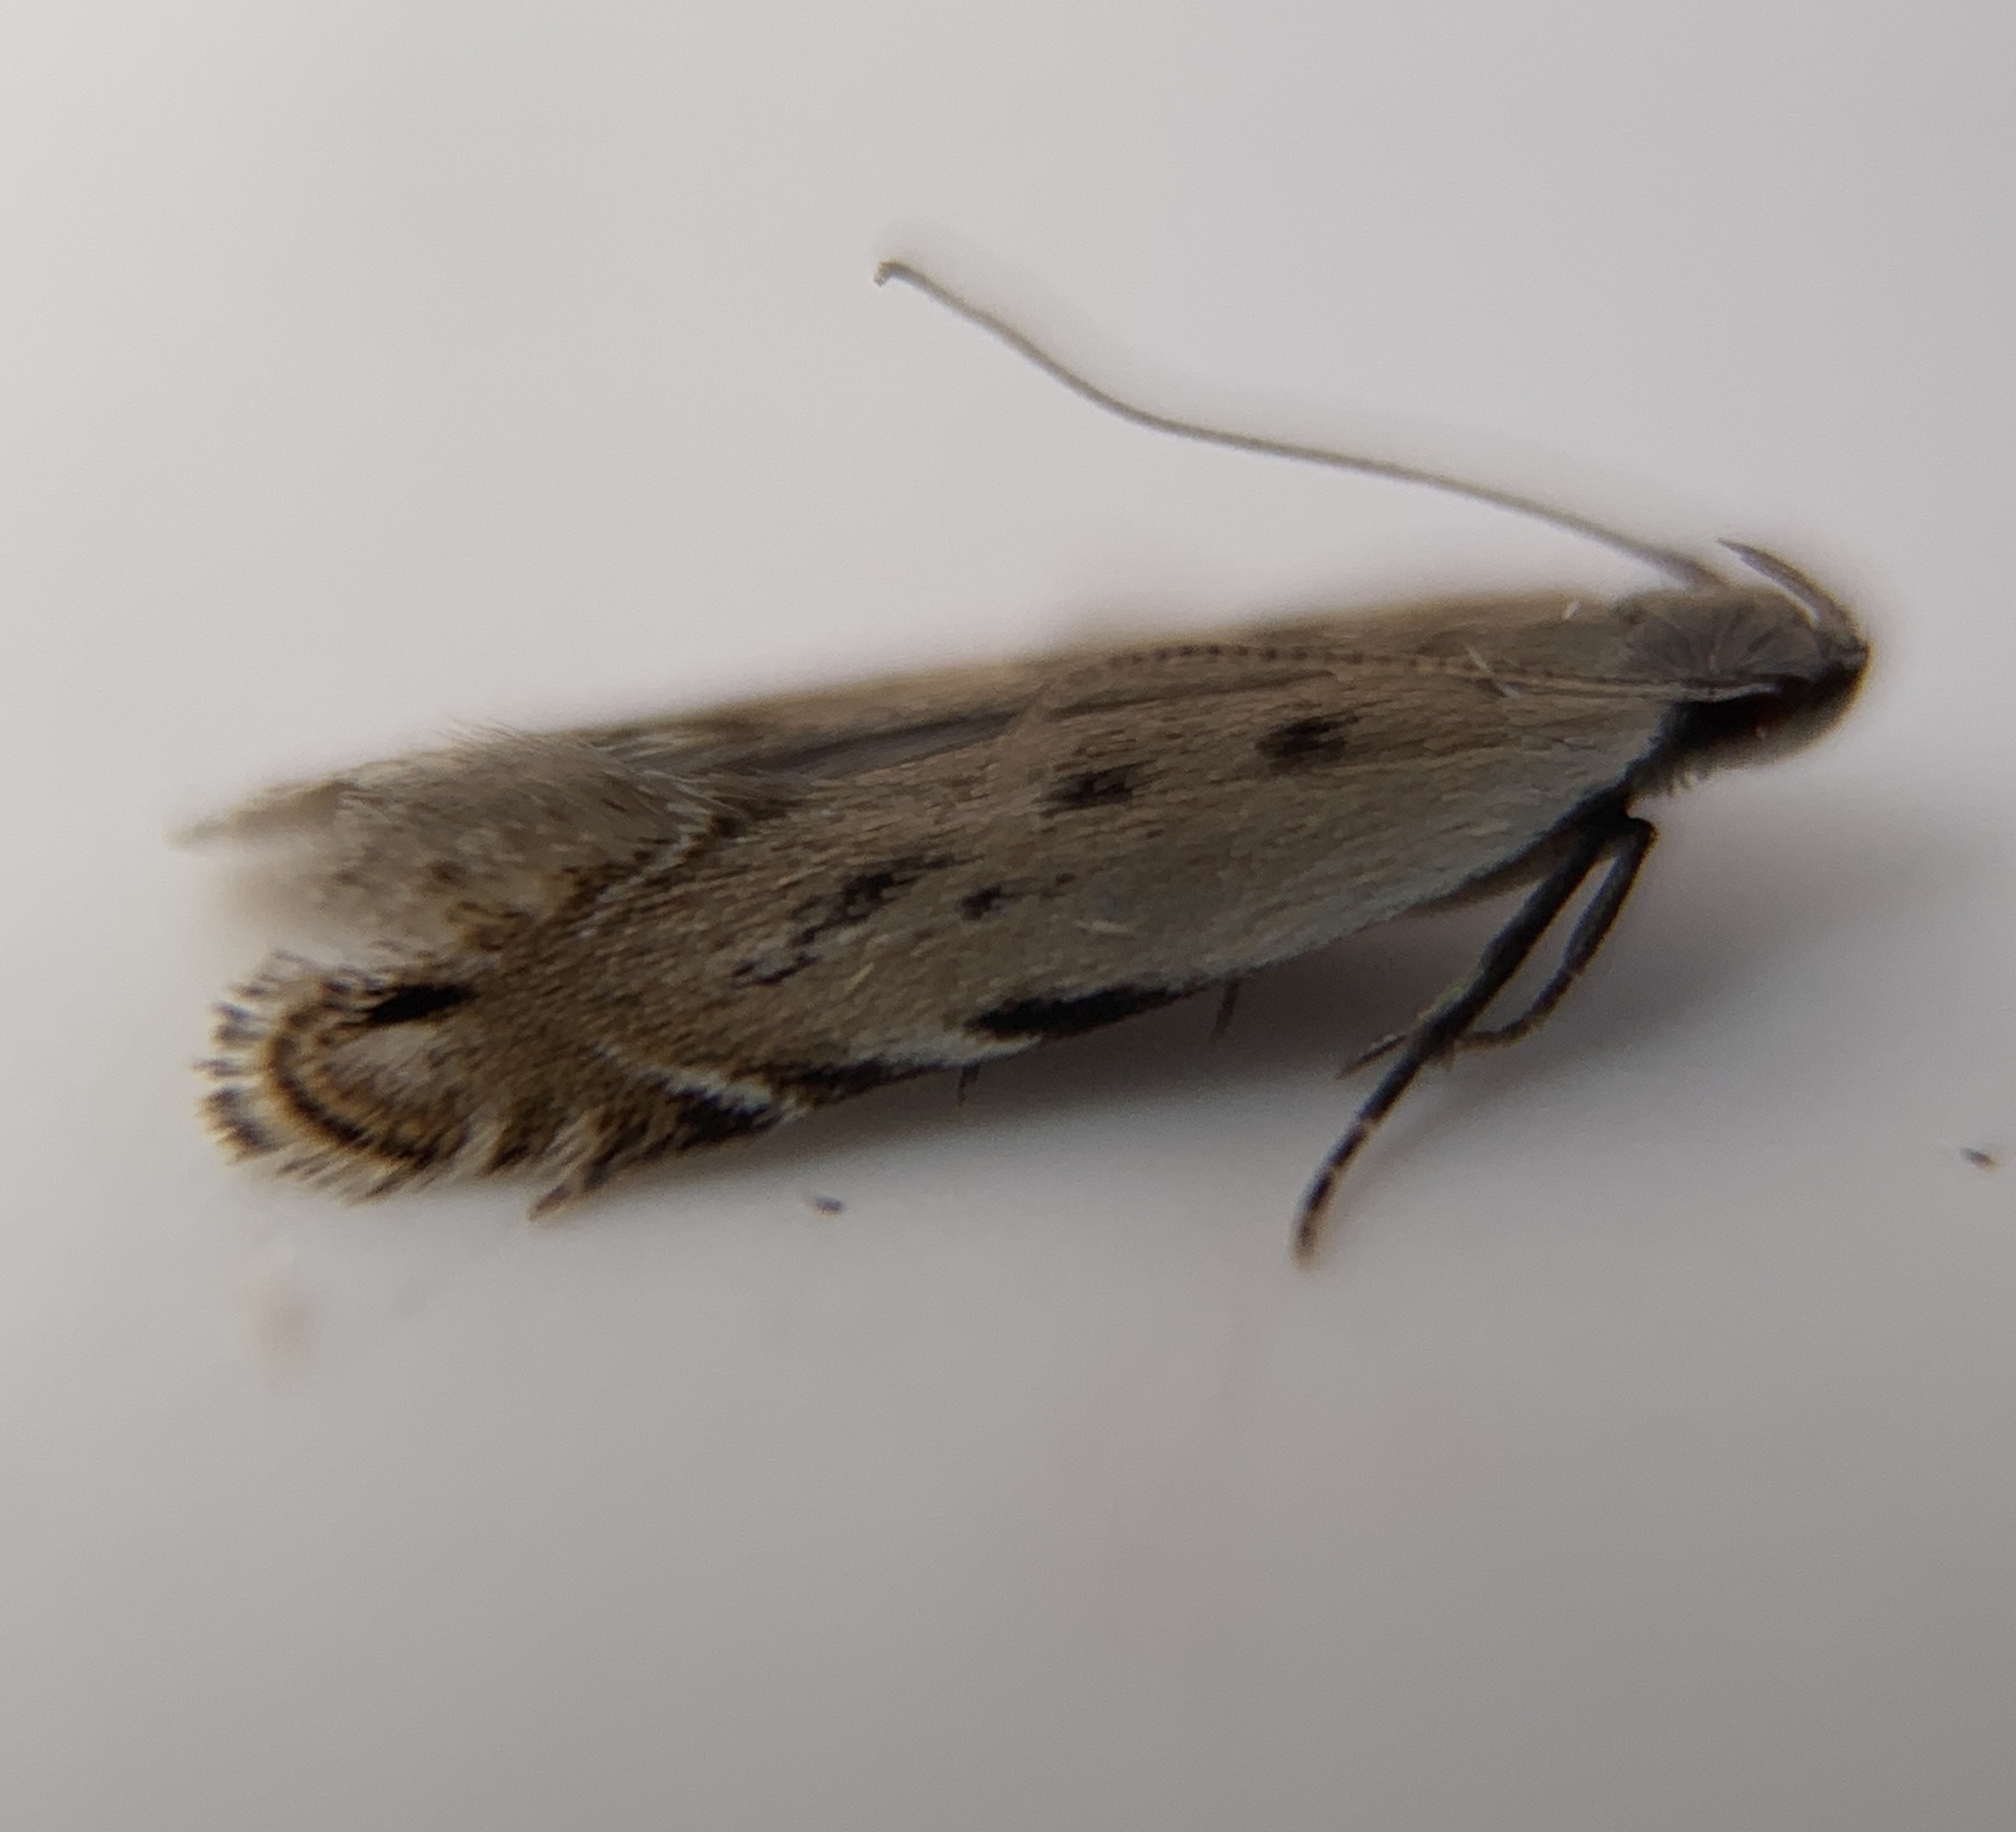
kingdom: Animalia
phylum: Arthropoda
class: Insecta
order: Lepidoptera
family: Gelechiidae
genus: Battaristis
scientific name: Battaristis nigratomella
